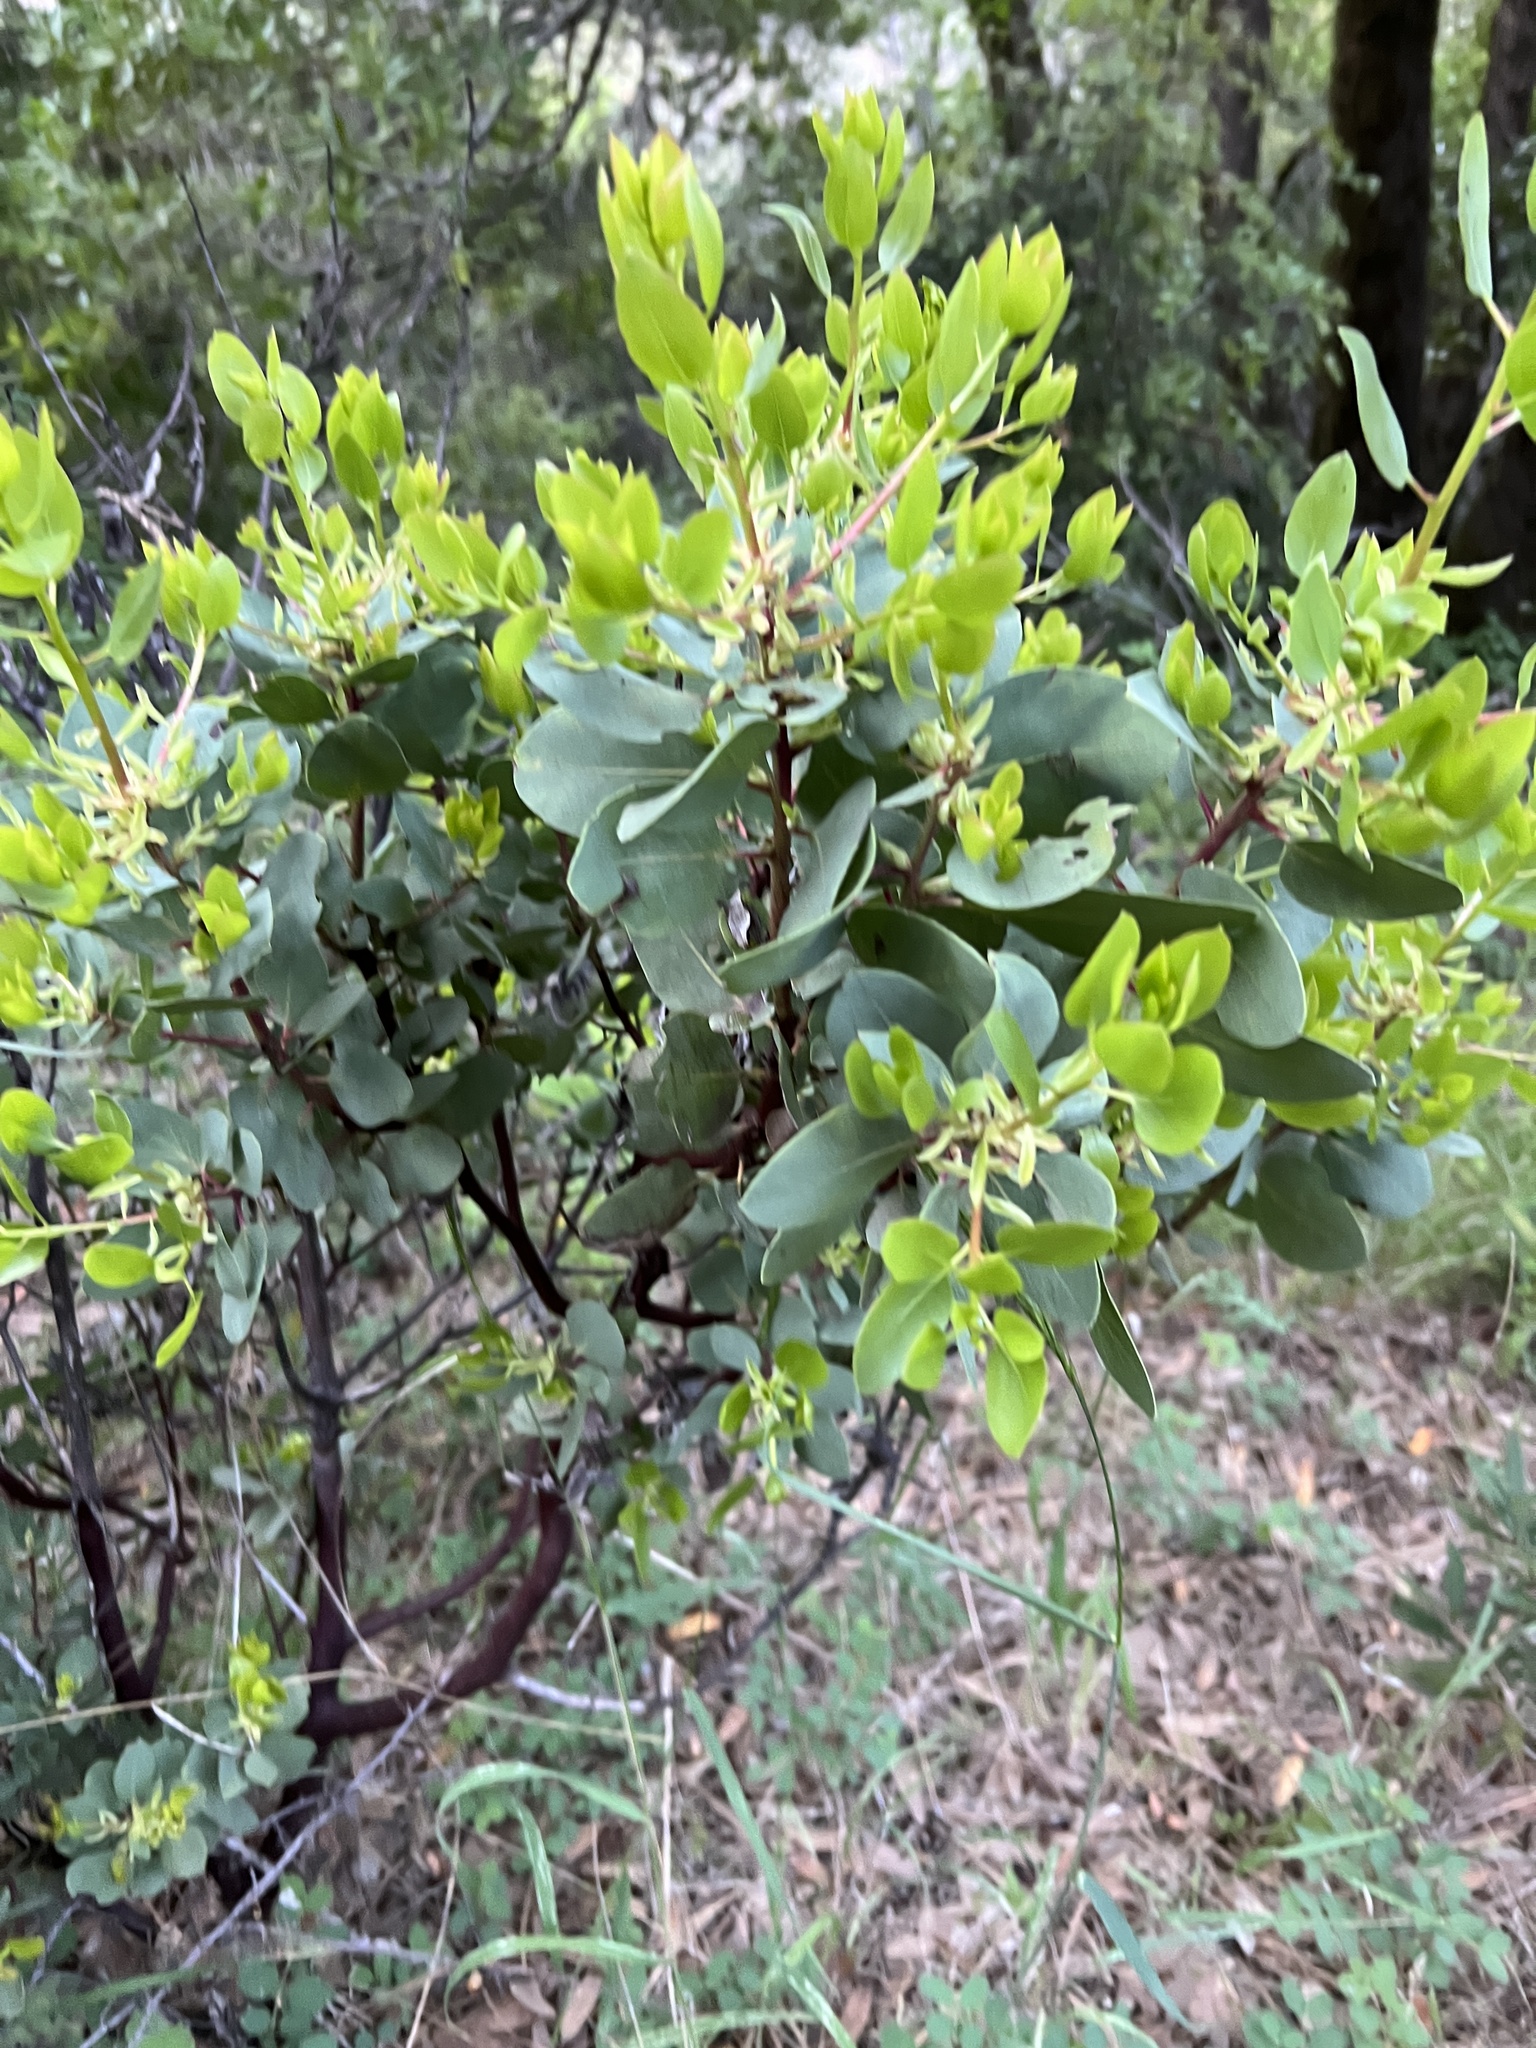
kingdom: Plantae
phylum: Tracheophyta
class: Magnoliopsida
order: Ericales
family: Ericaceae
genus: Arctostaphylos
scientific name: Arctostaphylos glauca
